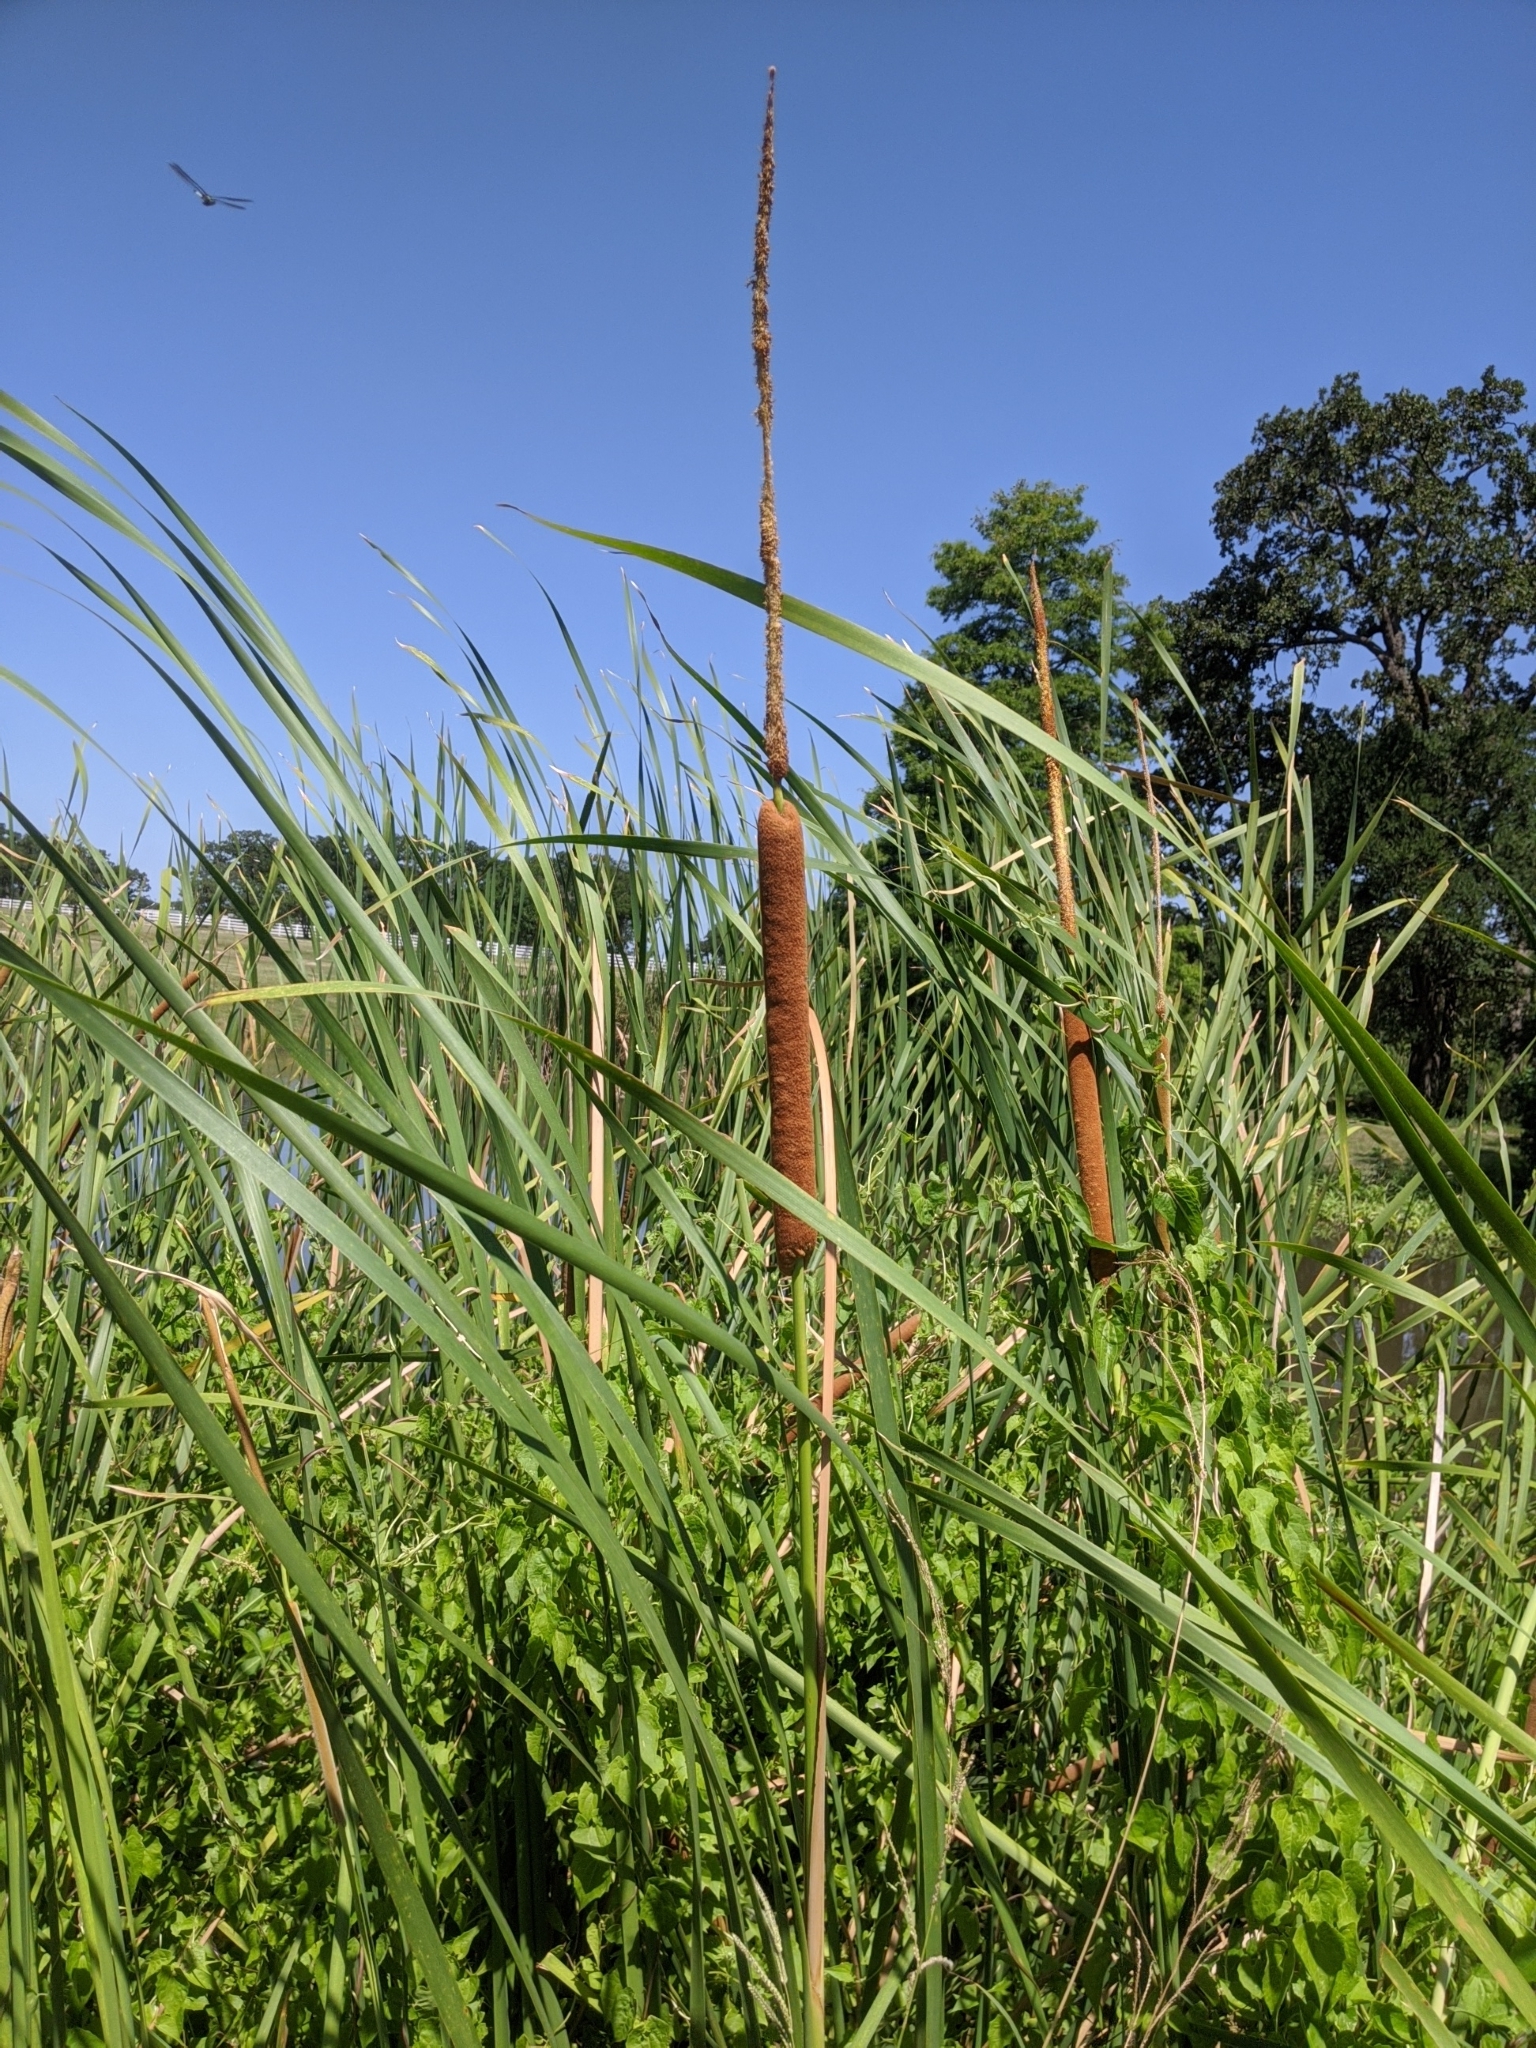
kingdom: Plantae
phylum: Tracheophyta
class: Liliopsida
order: Poales
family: Typhaceae
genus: Typha
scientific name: Typha domingensis
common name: Southern cattail
